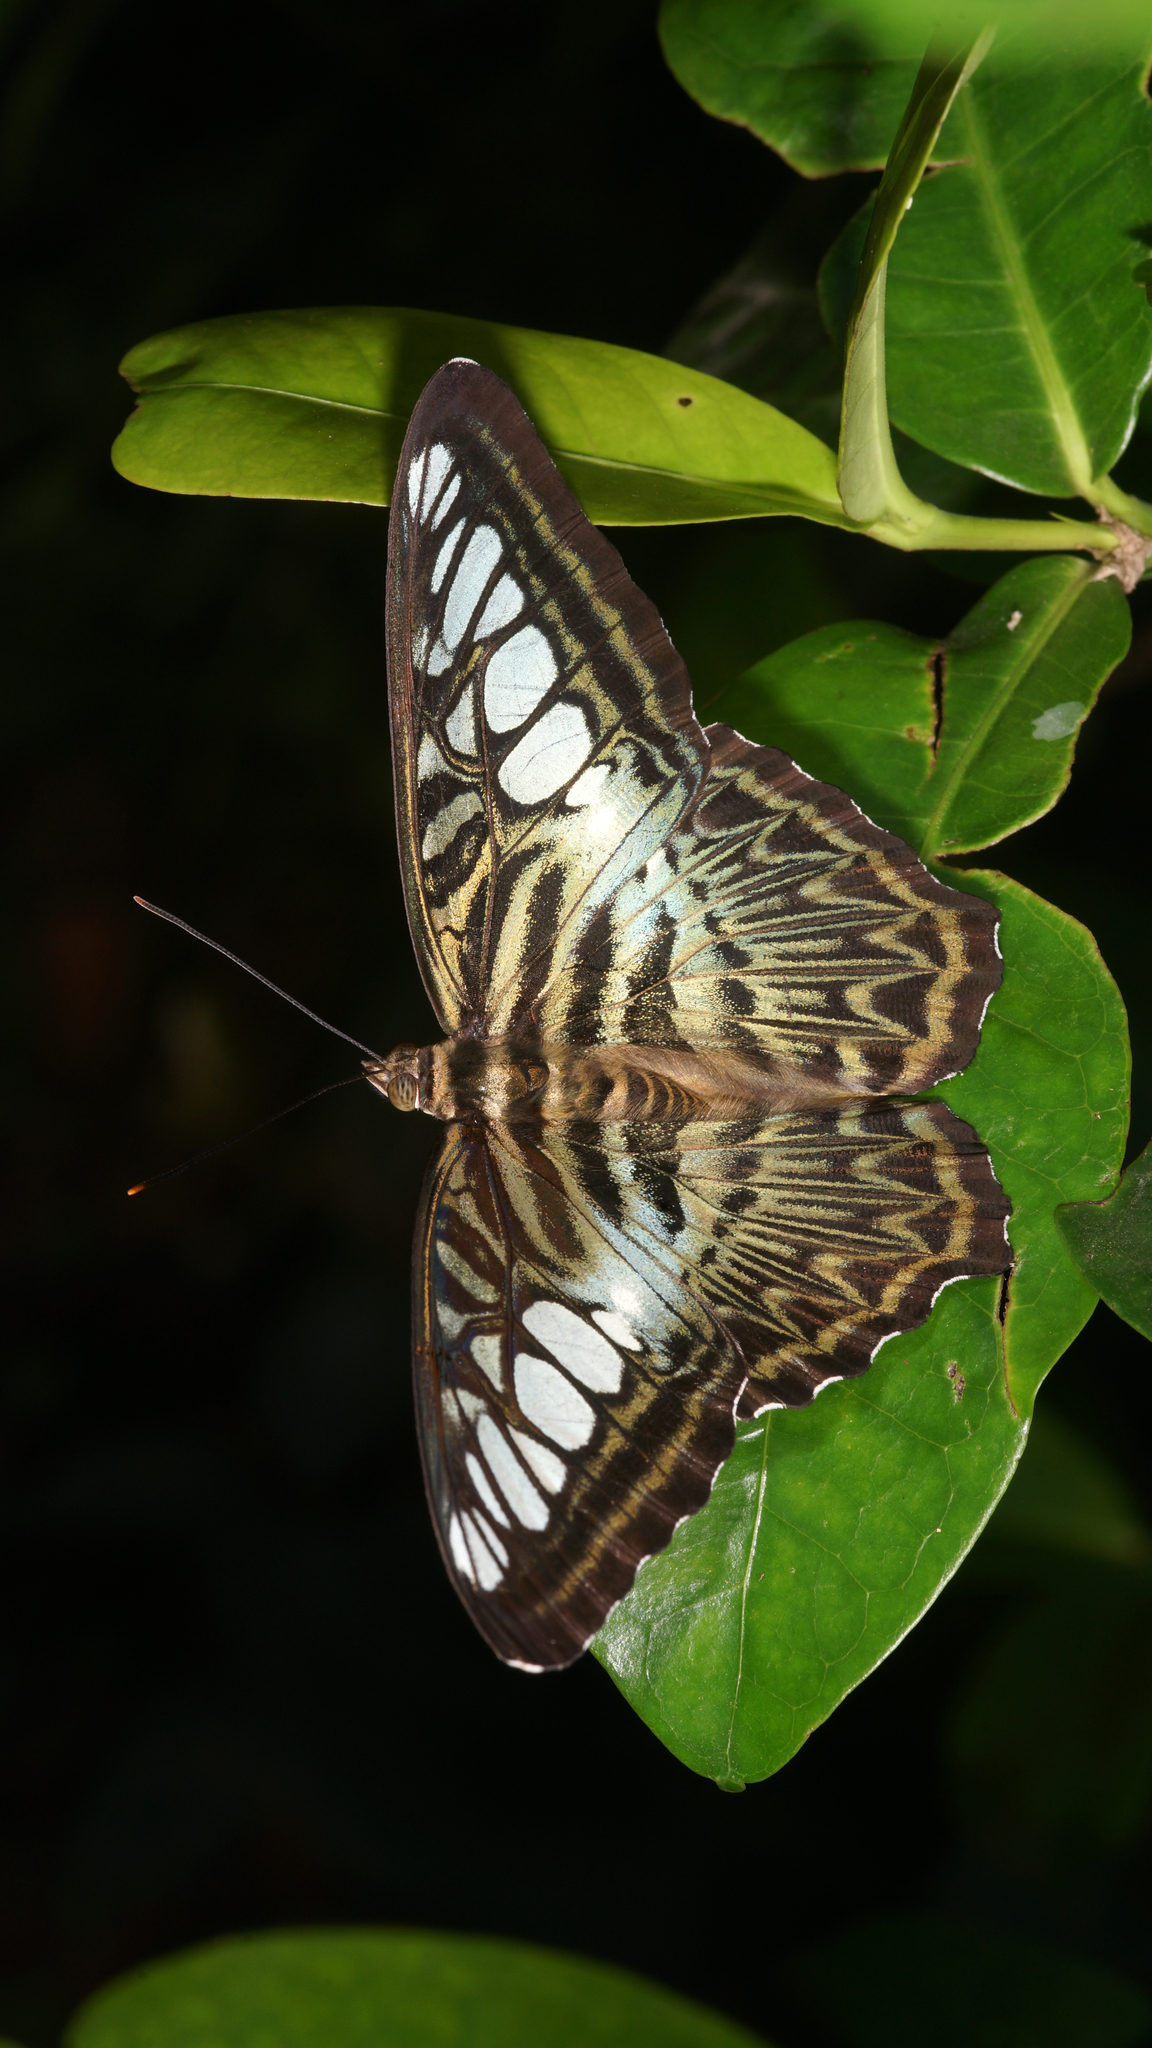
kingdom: Animalia
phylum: Arthropoda
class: Insecta
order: Lepidoptera
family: Nymphalidae
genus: Kallima
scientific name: Kallima sylvia
